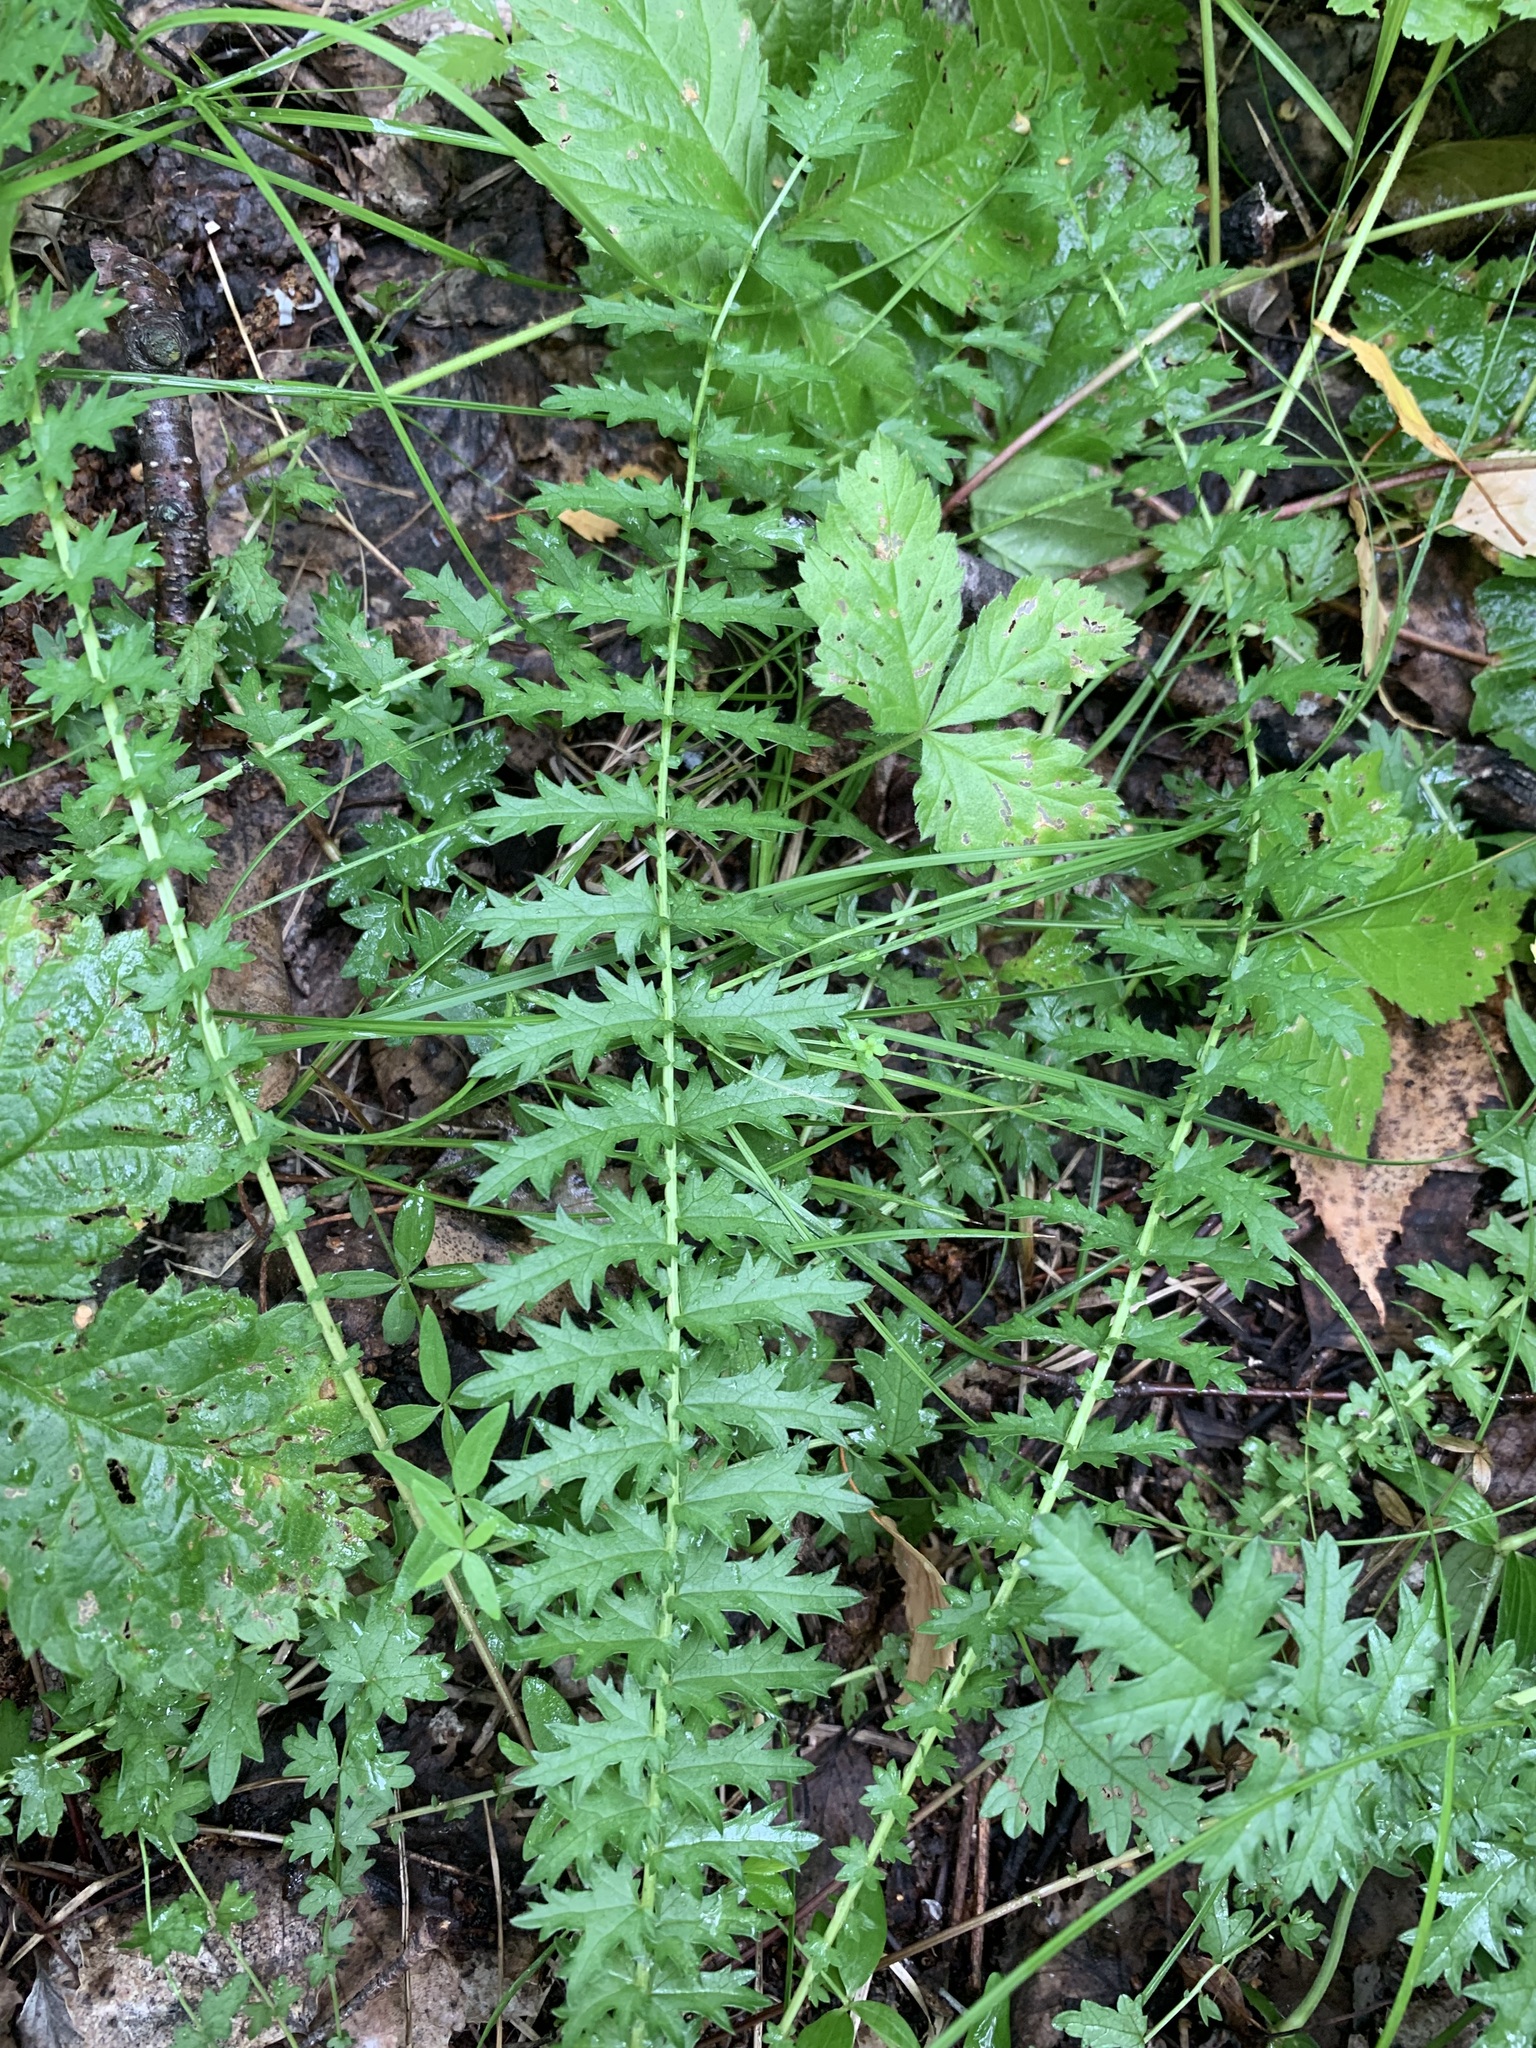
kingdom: Plantae
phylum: Tracheophyta
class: Magnoliopsida
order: Rosales
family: Rosaceae
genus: Filipendula
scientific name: Filipendula vulgaris
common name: Dropwort
